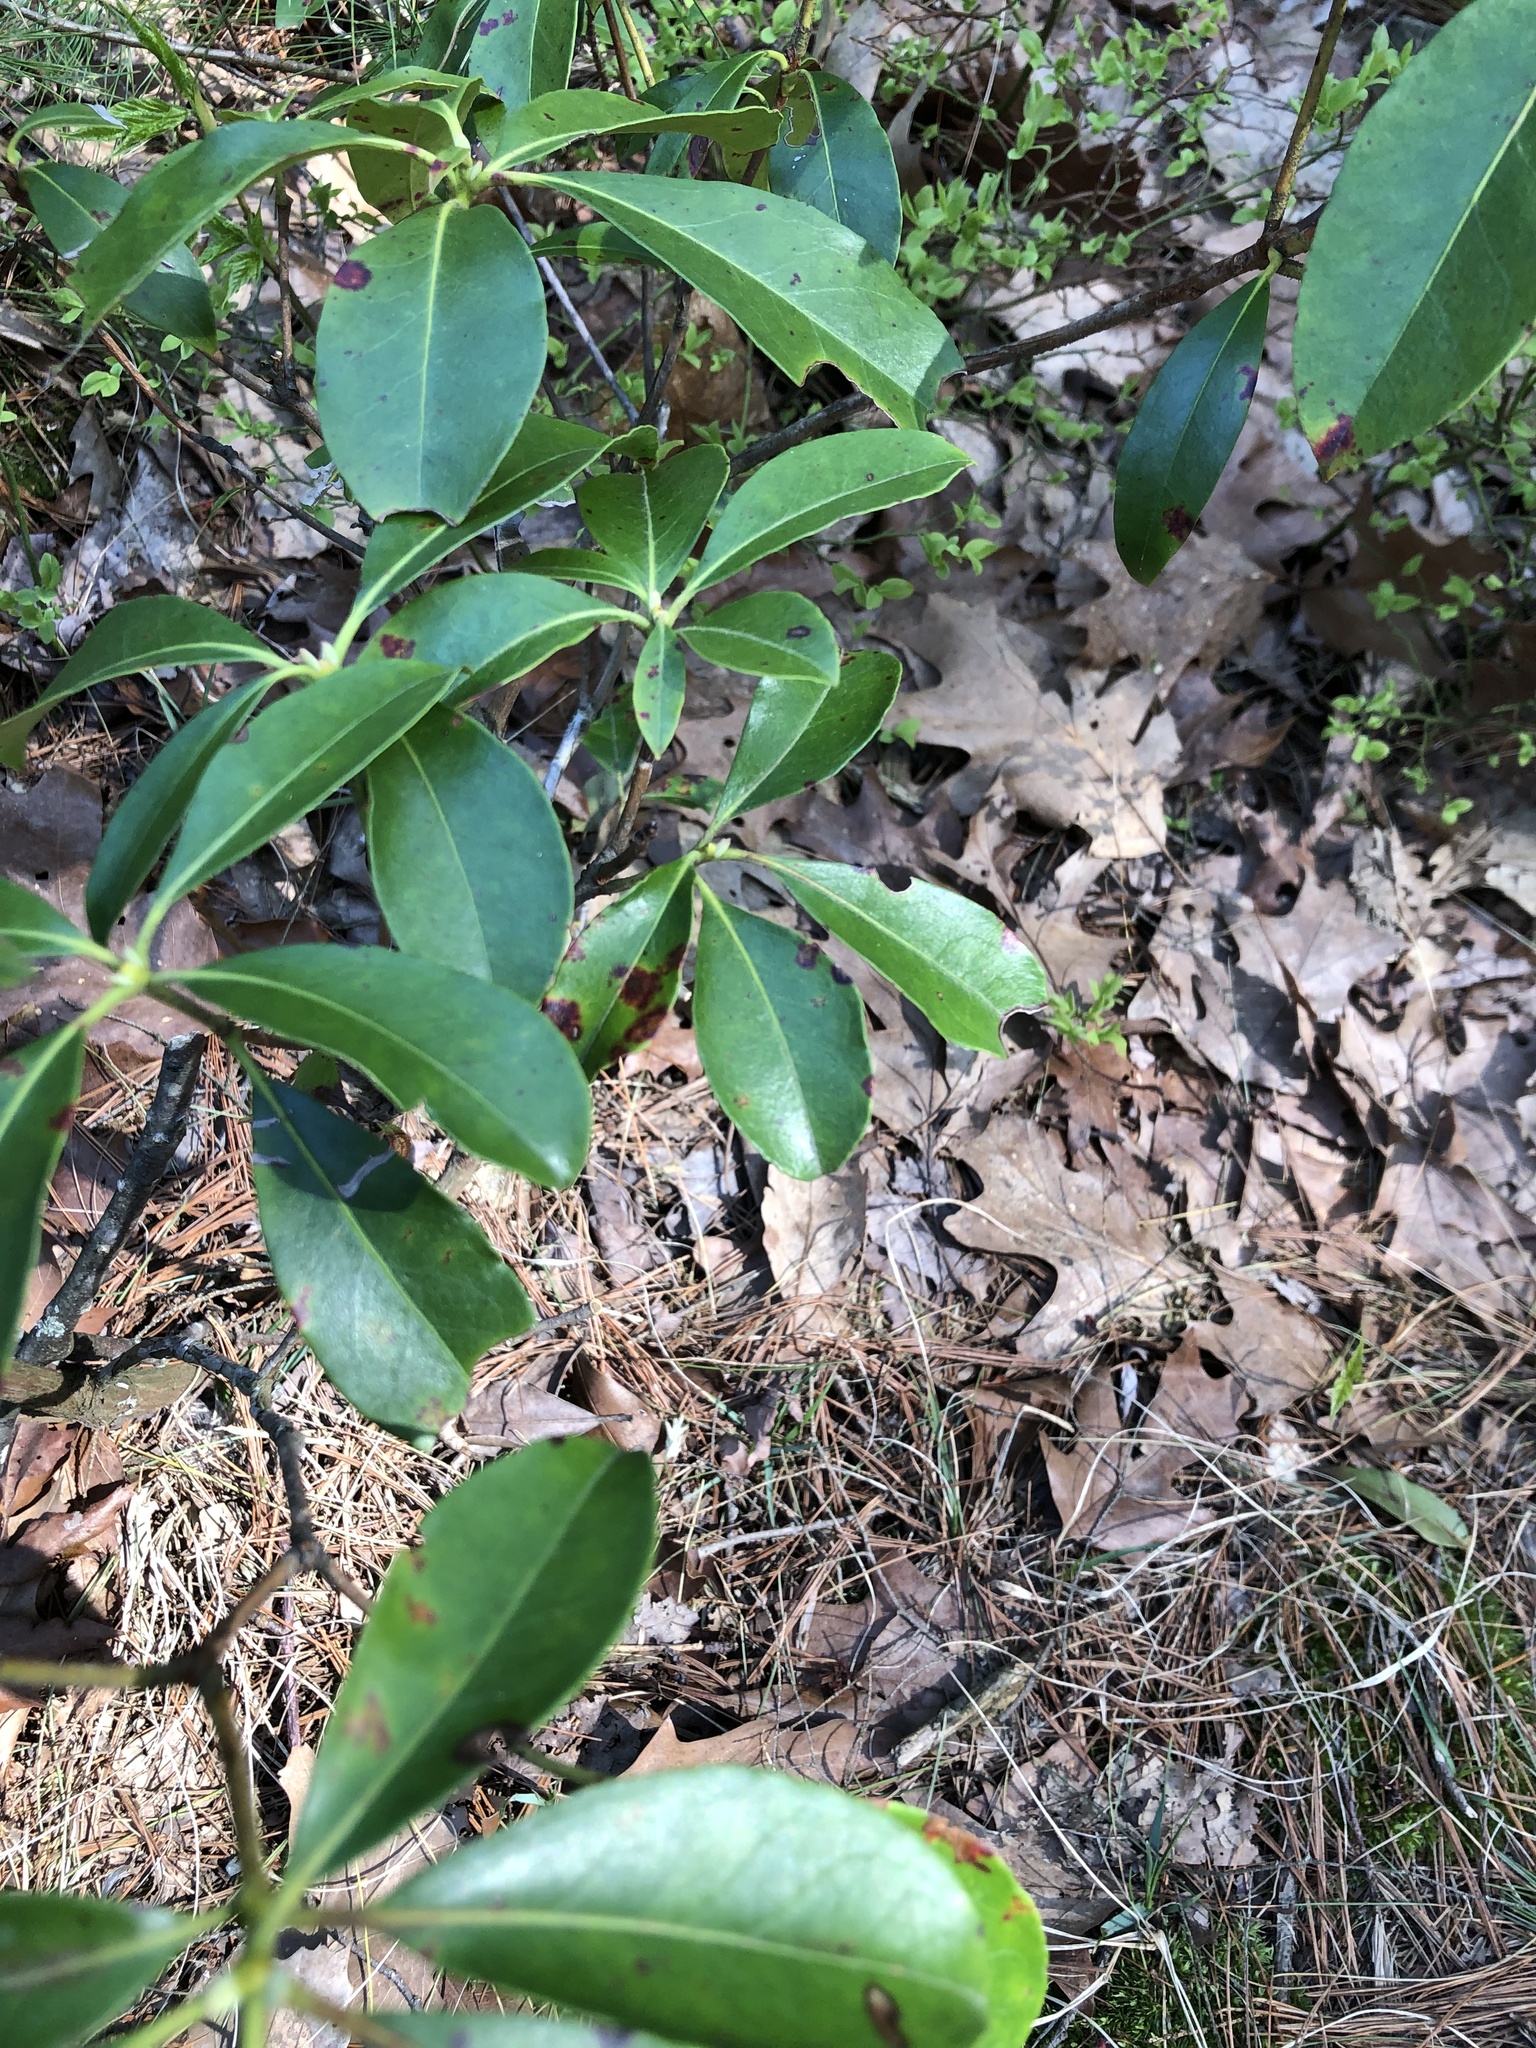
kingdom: Plantae
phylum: Tracheophyta
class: Magnoliopsida
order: Ericales
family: Ericaceae
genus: Kalmia
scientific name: Kalmia latifolia
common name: Mountain-laurel
